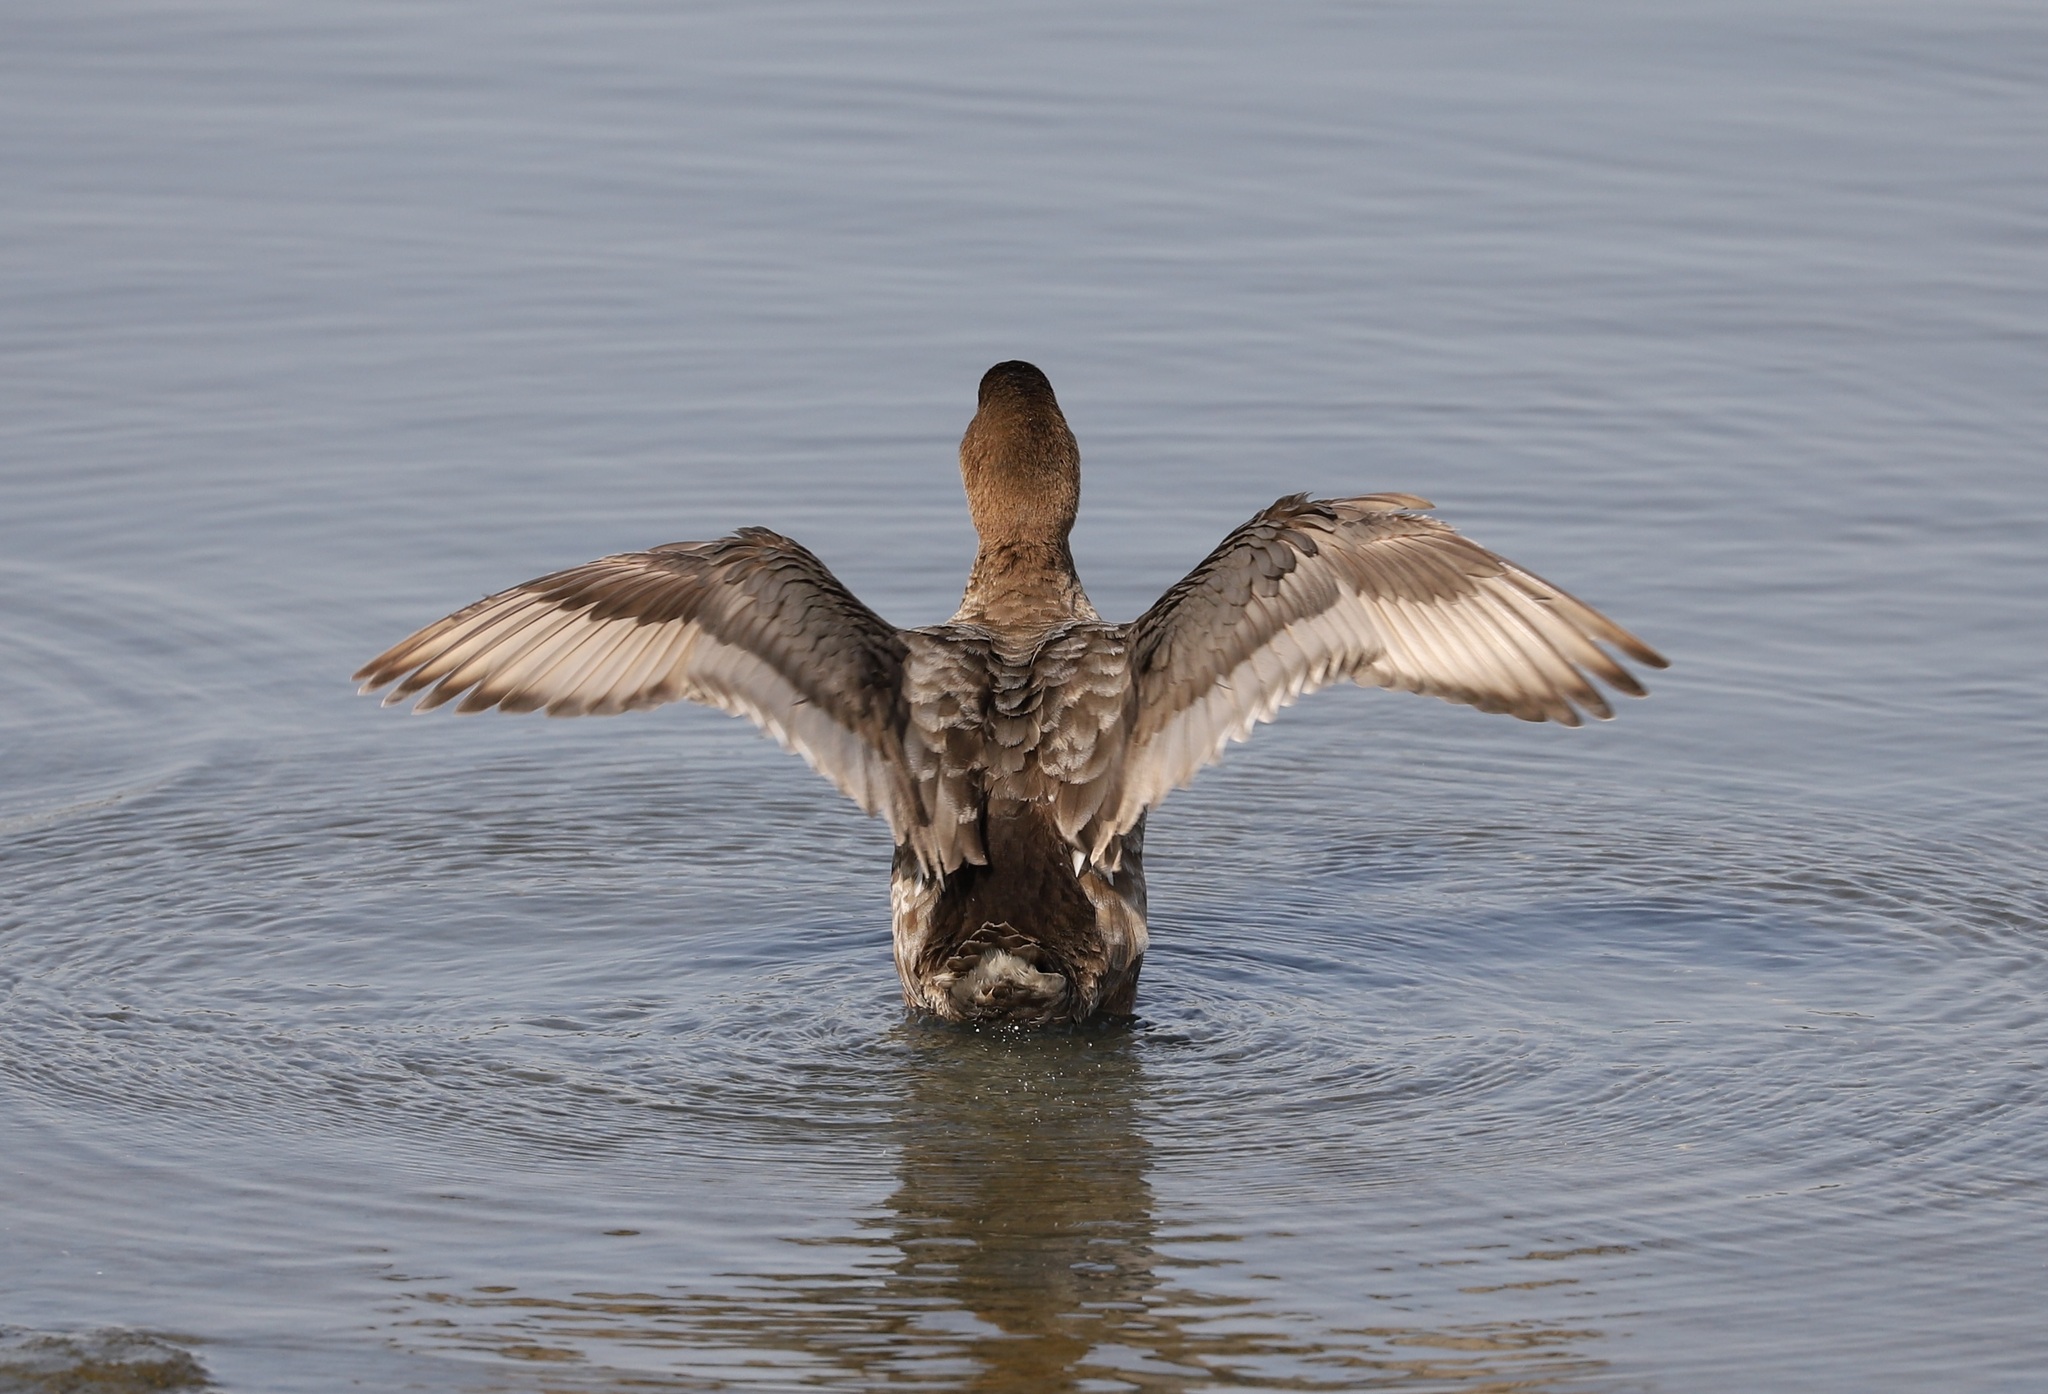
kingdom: Animalia
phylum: Chordata
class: Aves
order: Anseriformes
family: Anatidae
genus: Aythya
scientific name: Aythya ferina
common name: Common pochard
